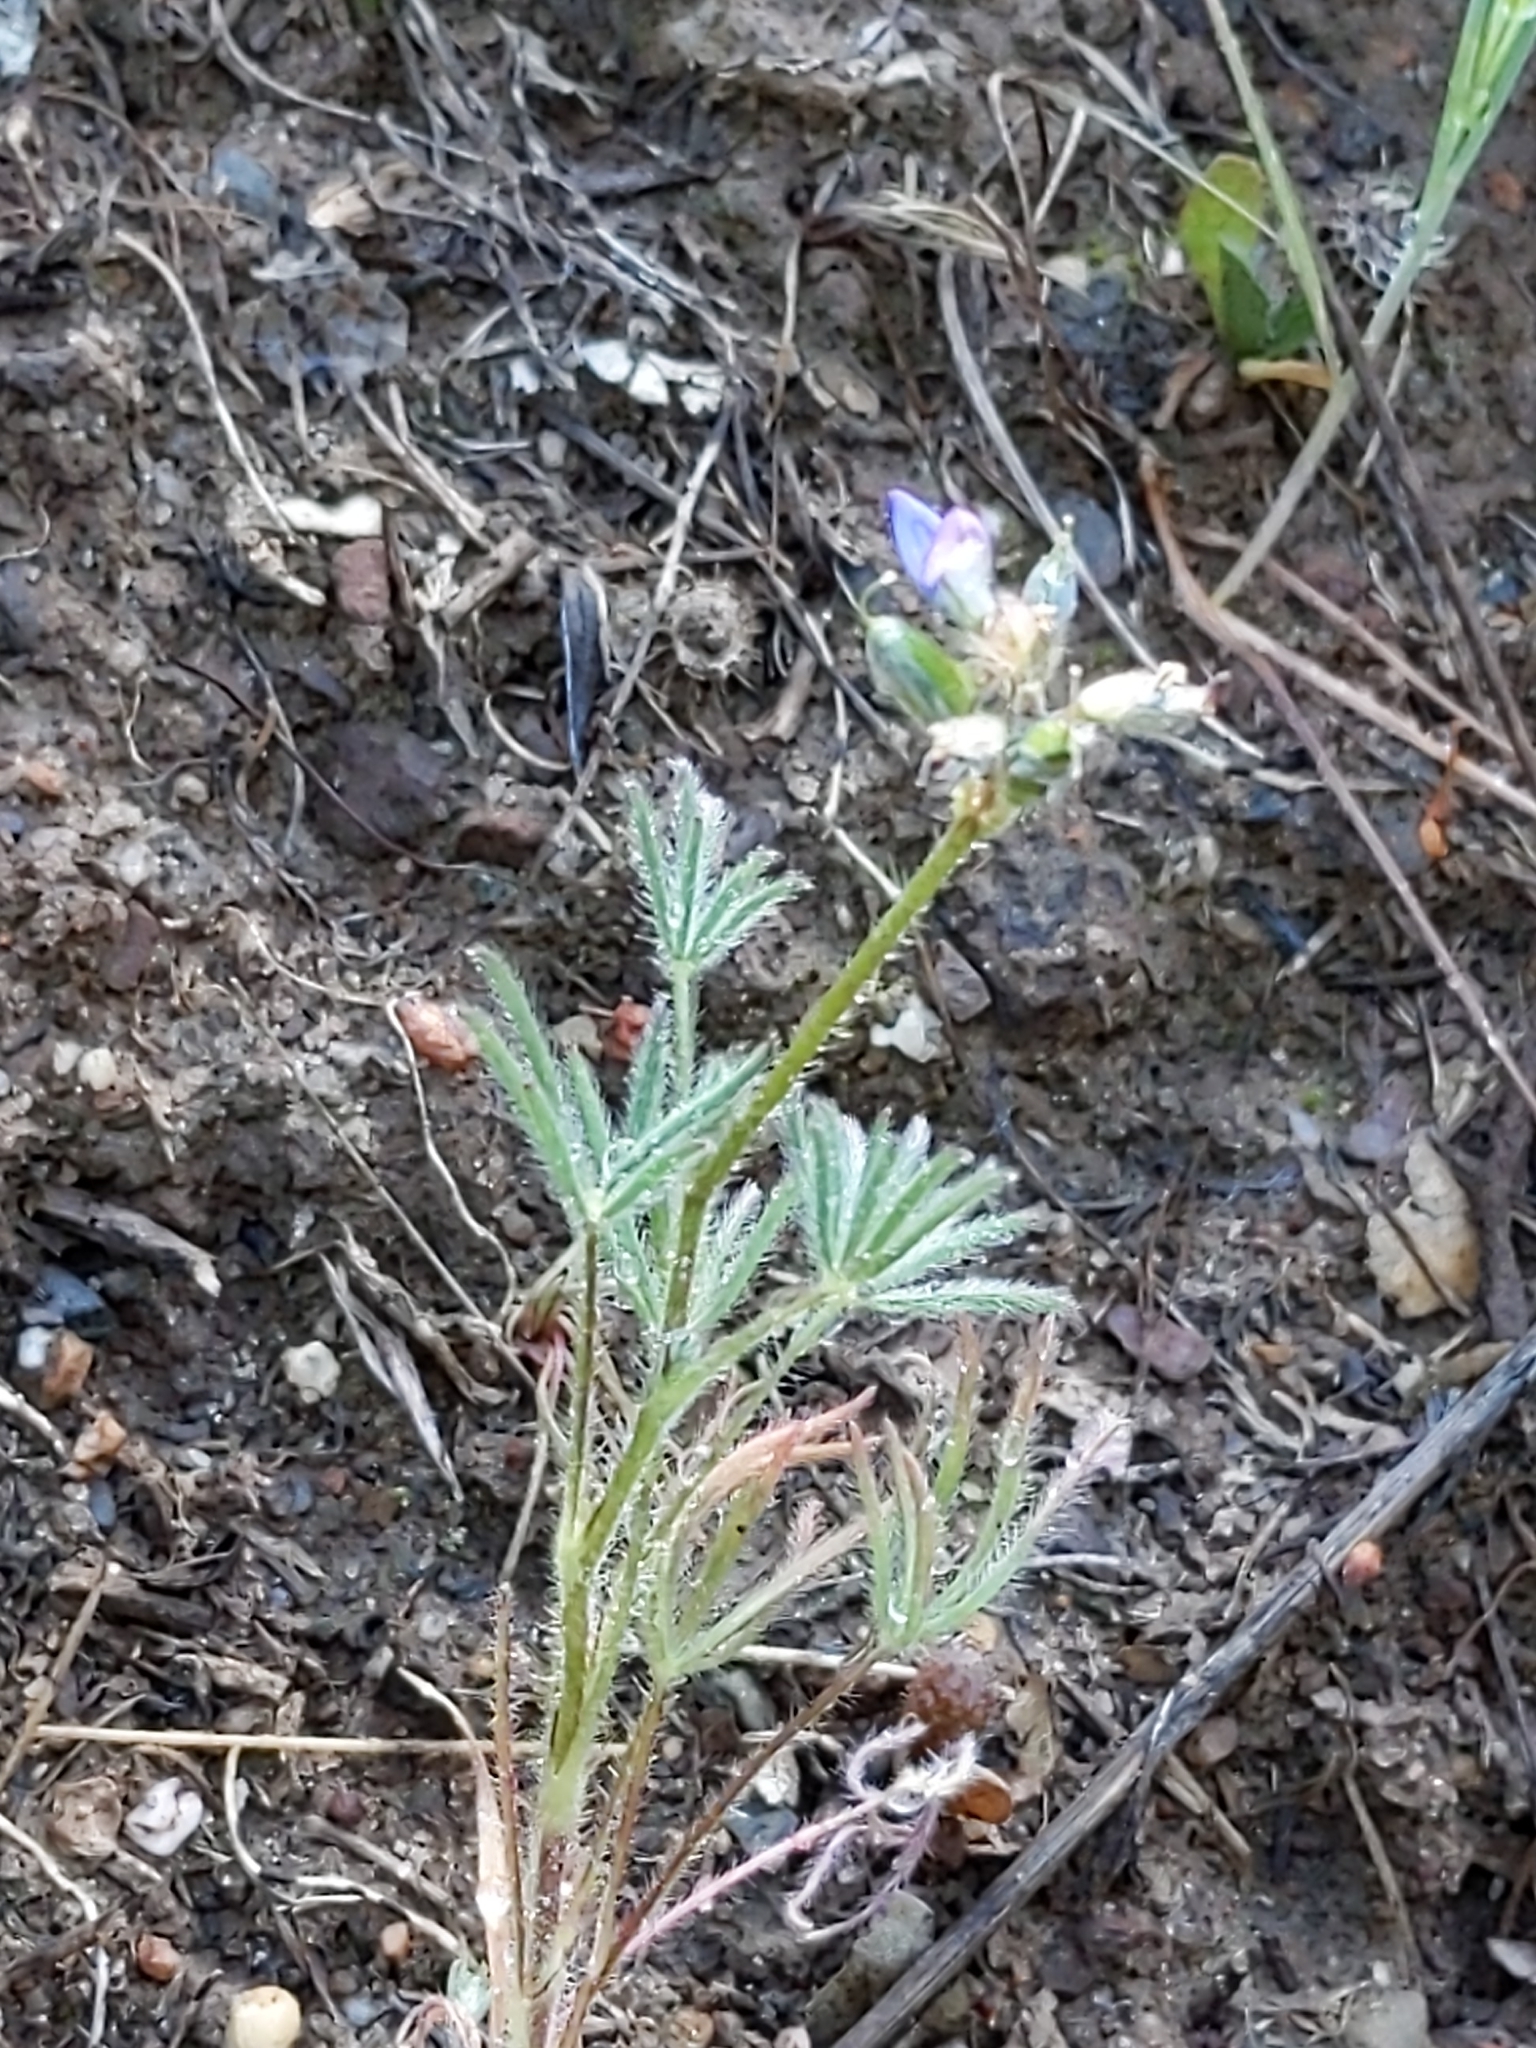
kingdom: Plantae
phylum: Tracheophyta
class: Magnoliopsida
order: Fabales
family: Fabaceae
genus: Lupinus
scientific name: Lupinus bicolor
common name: Miniature lupine
